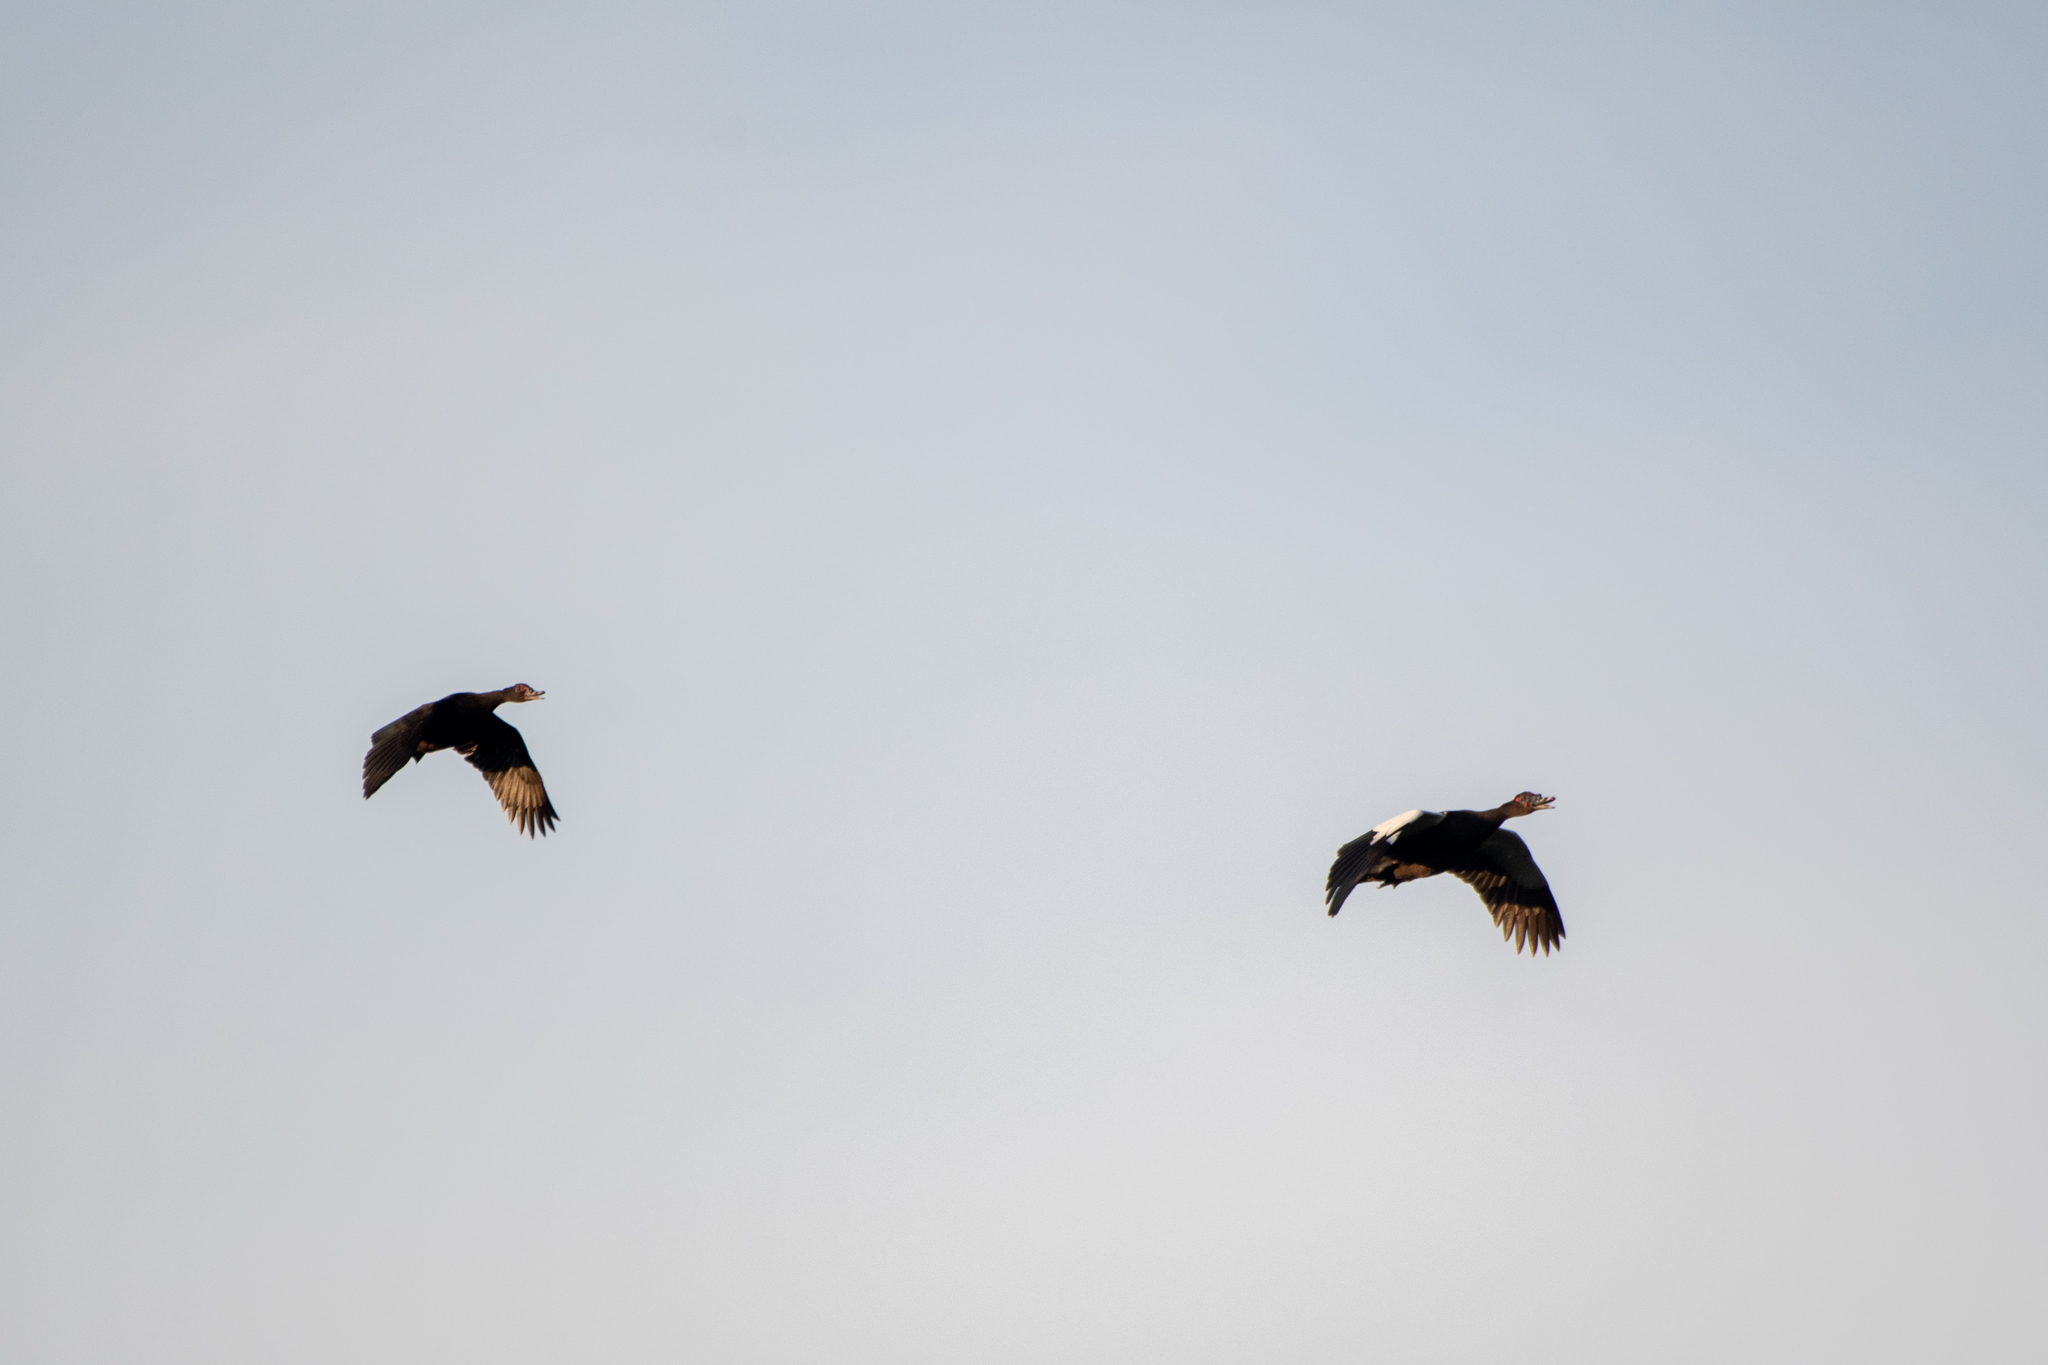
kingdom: Animalia
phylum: Chordata
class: Aves
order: Anseriformes
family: Anatidae
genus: Cairina
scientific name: Cairina moschata
